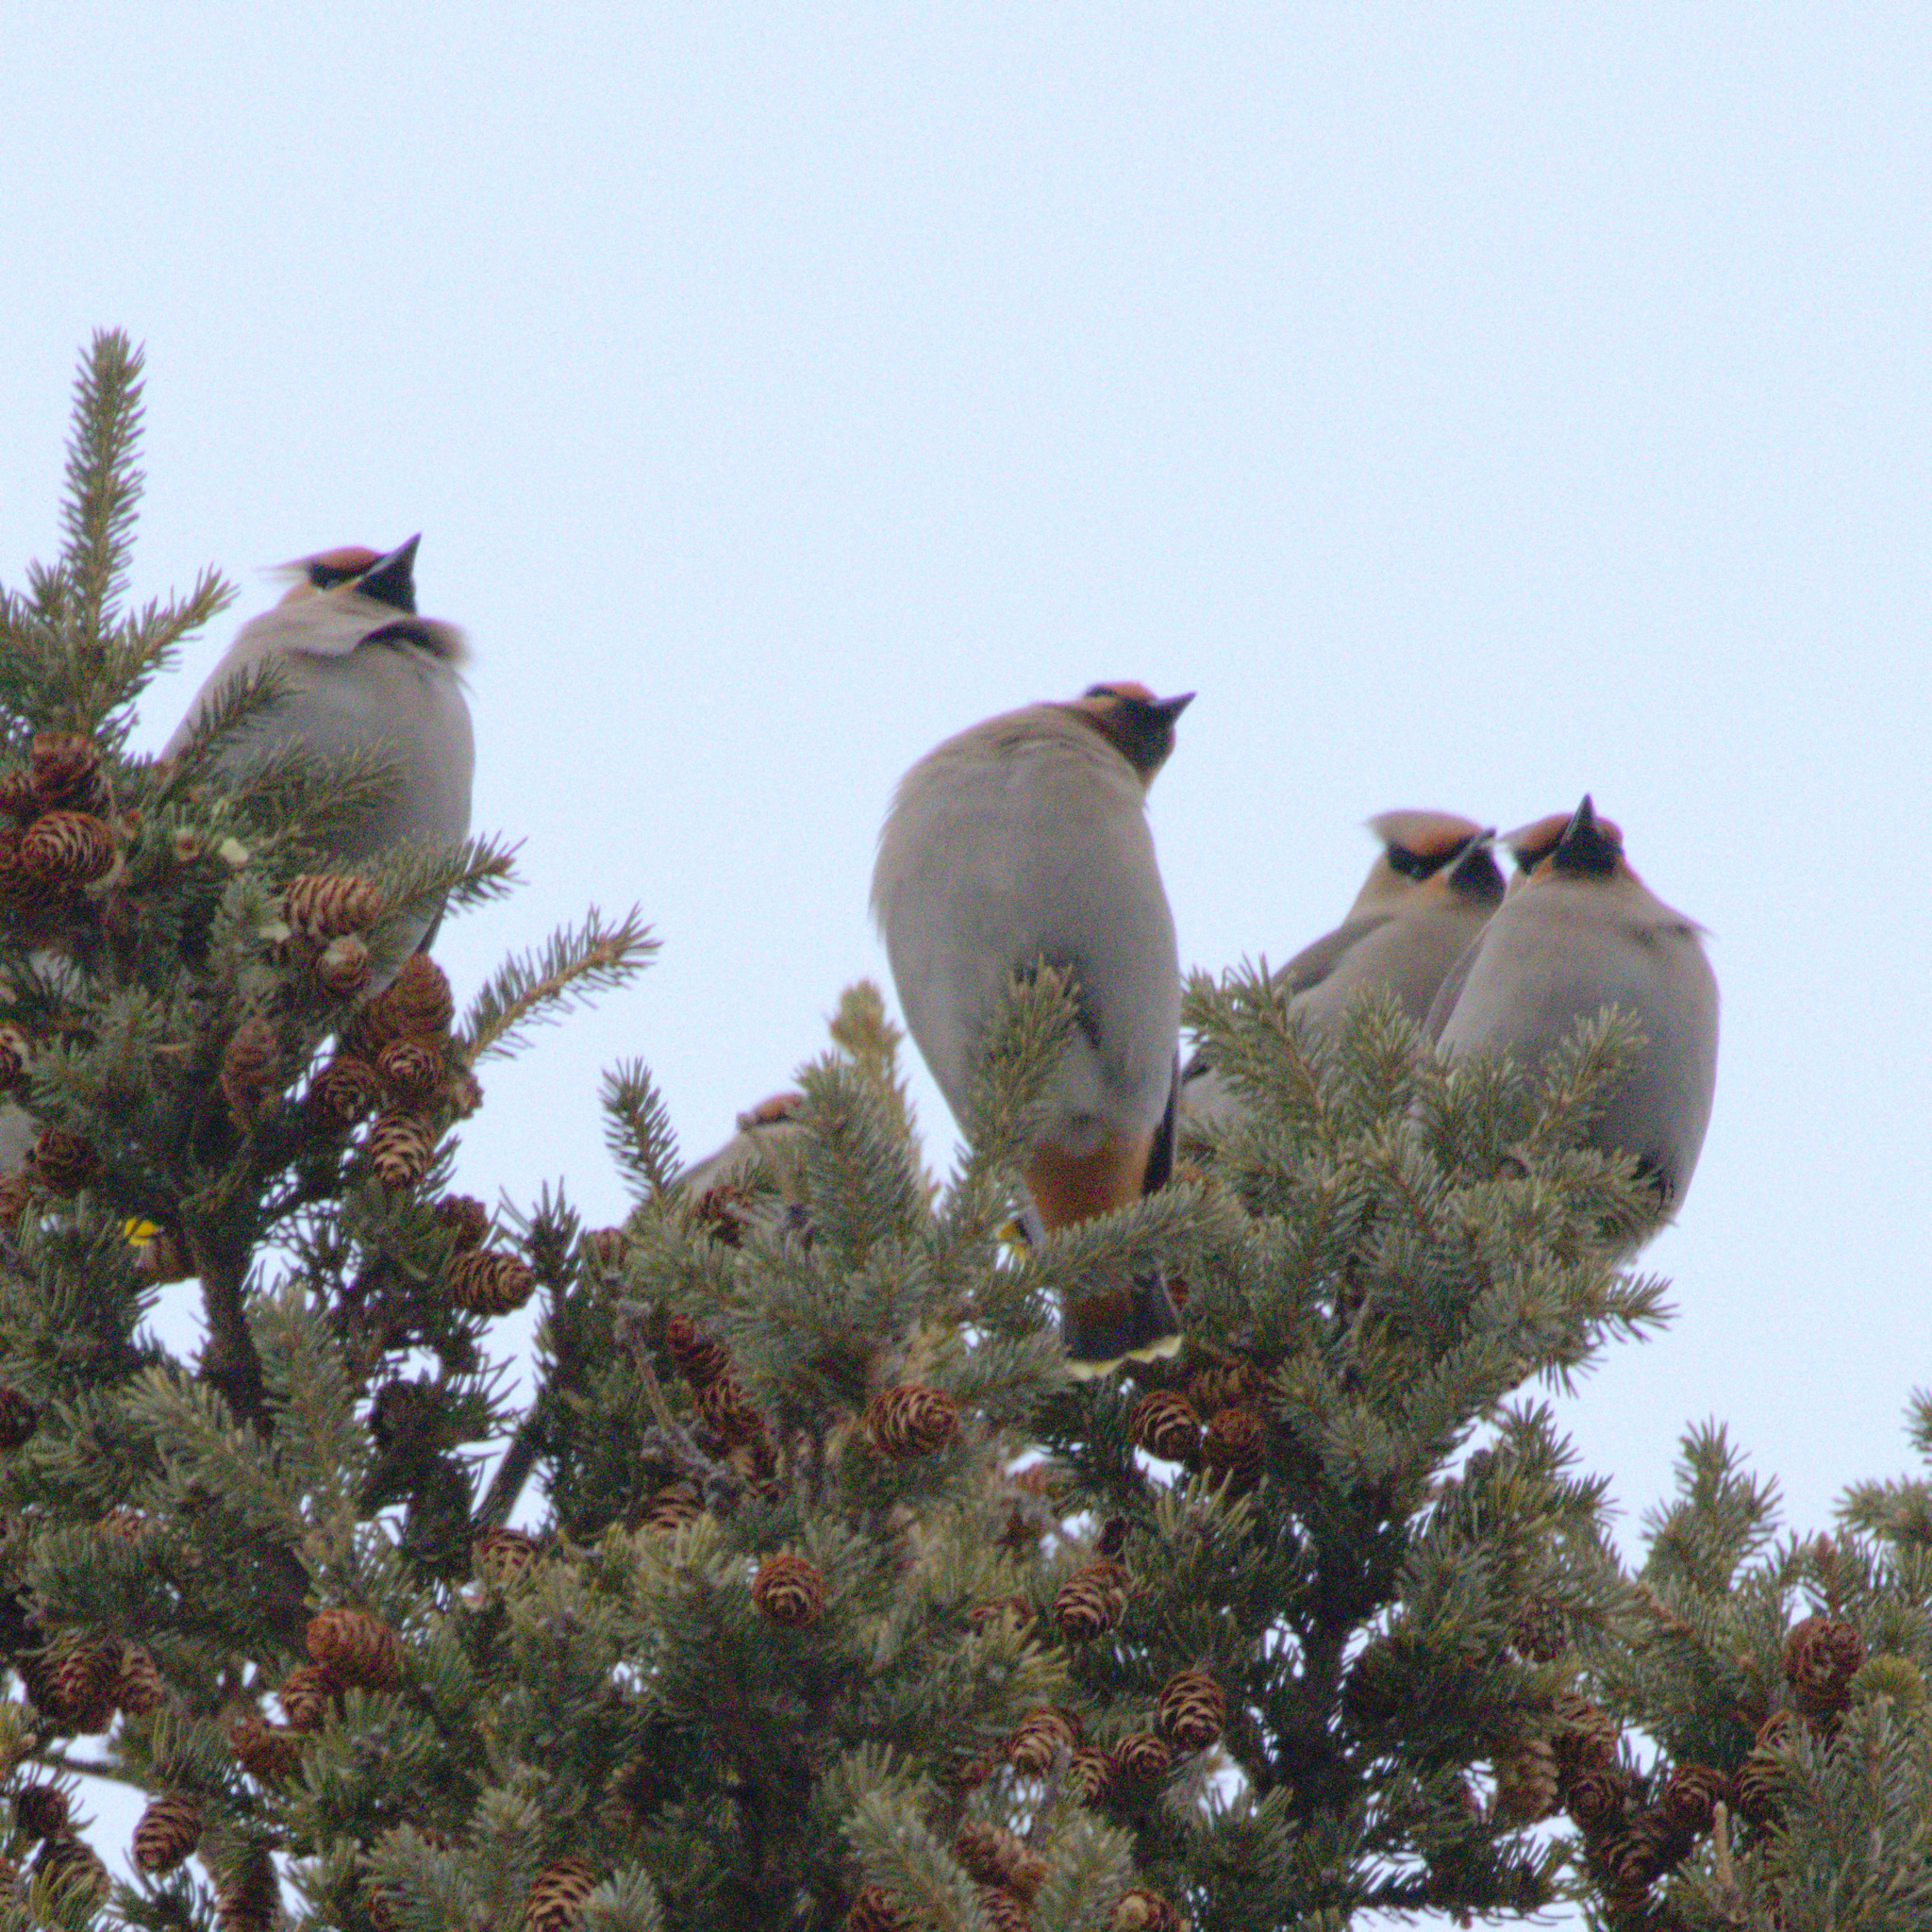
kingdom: Animalia
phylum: Chordata
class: Aves
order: Passeriformes
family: Bombycillidae
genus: Bombycilla
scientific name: Bombycilla garrulus
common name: Bohemian waxwing
